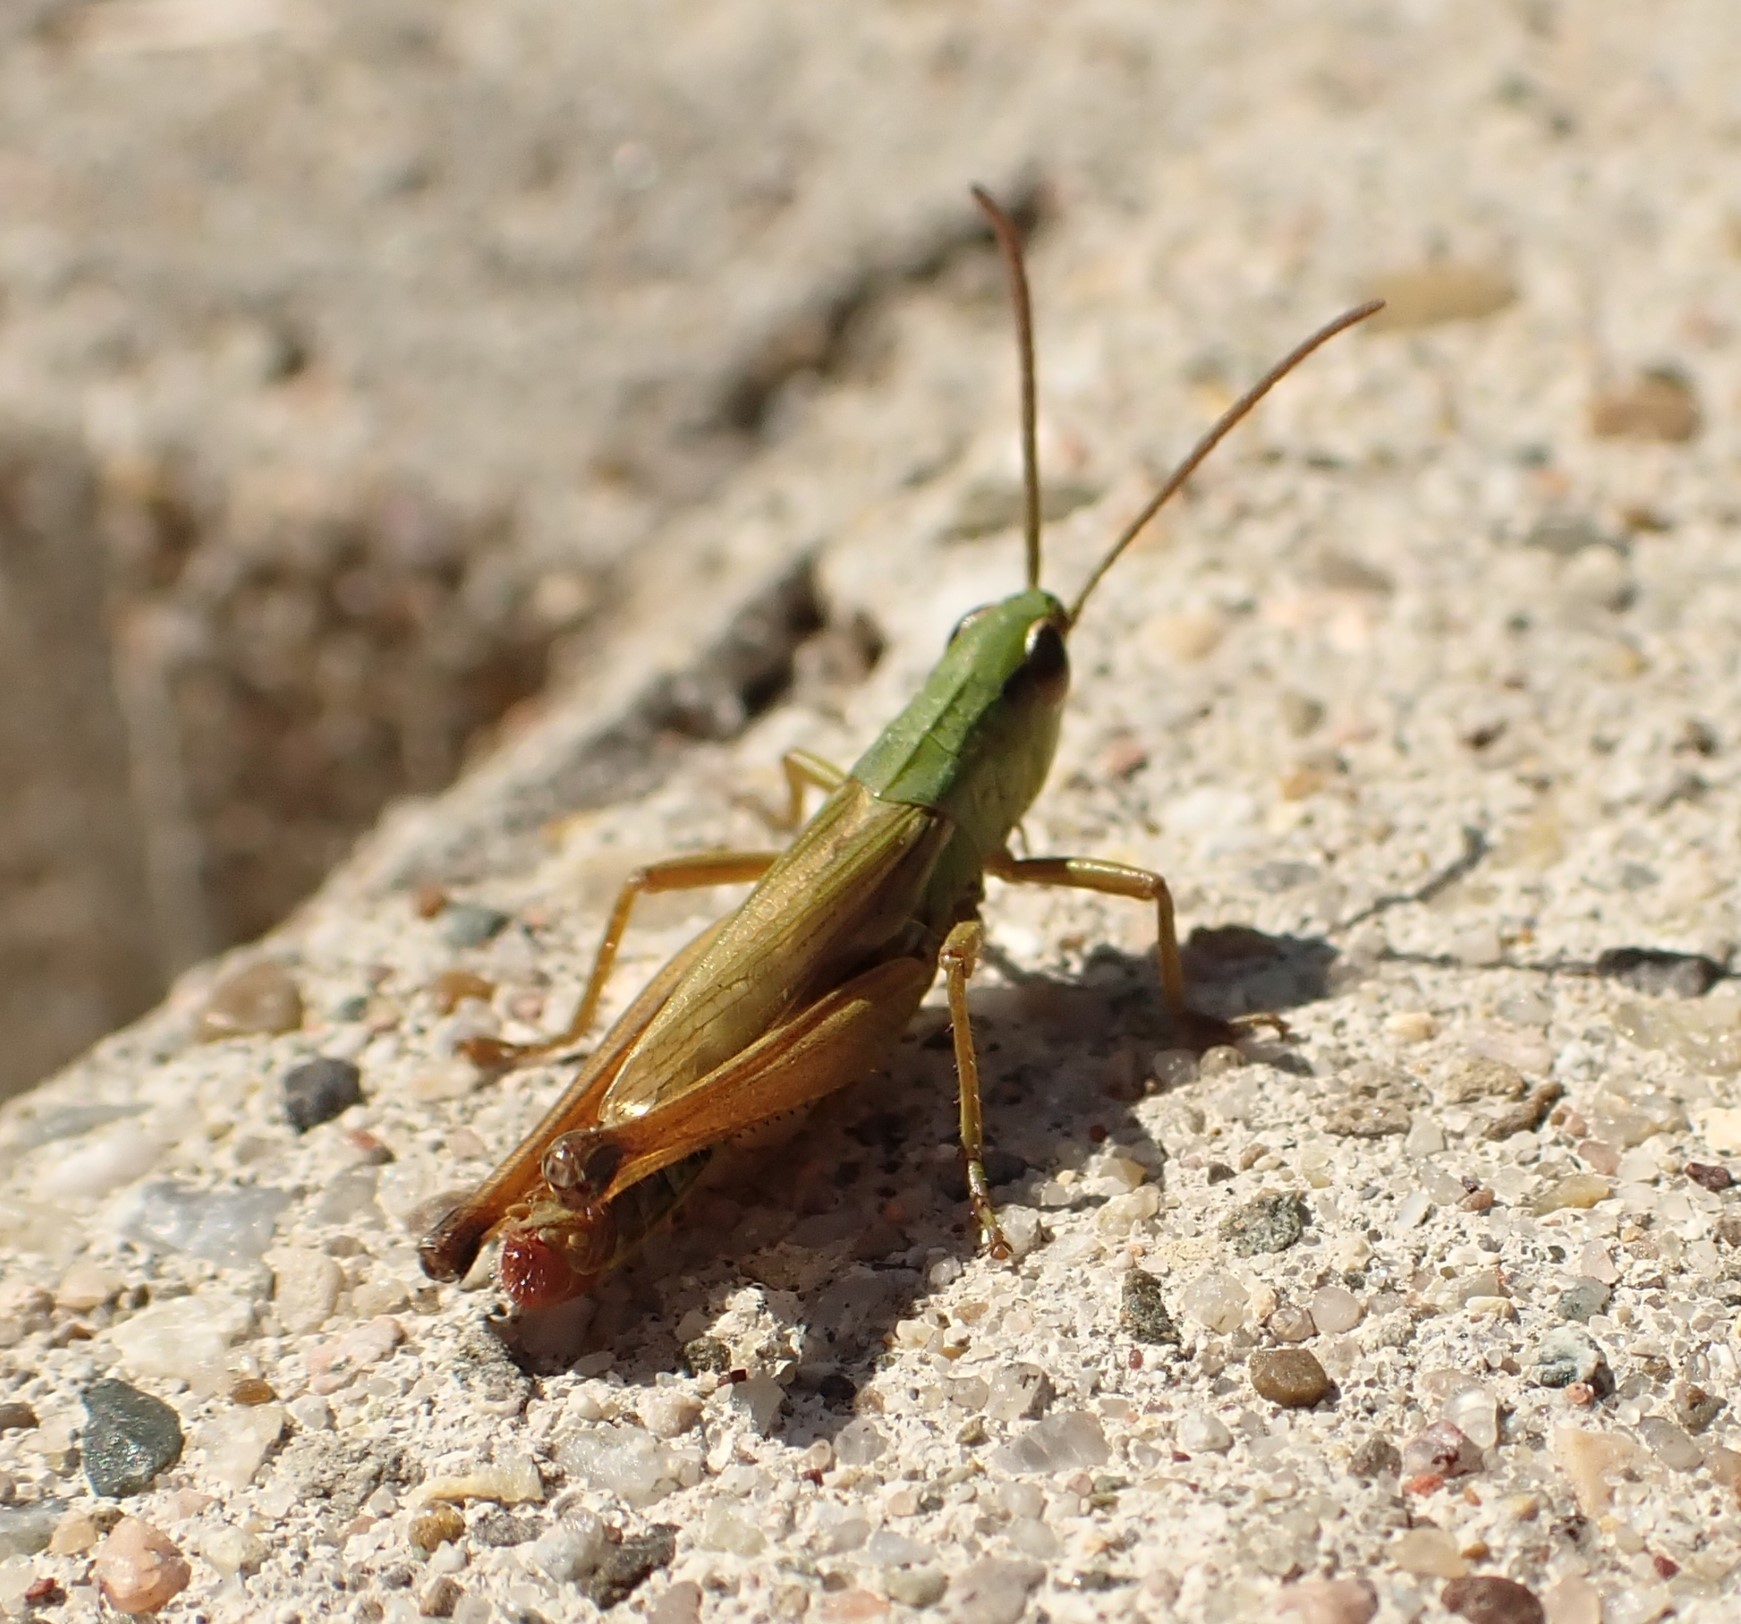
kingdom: Animalia
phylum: Arthropoda
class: Insecta
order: Orthoptera
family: Acrididae
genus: Pseudochorthippus
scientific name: Pseudochorthippus parallelus
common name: Meadow grasshopper
